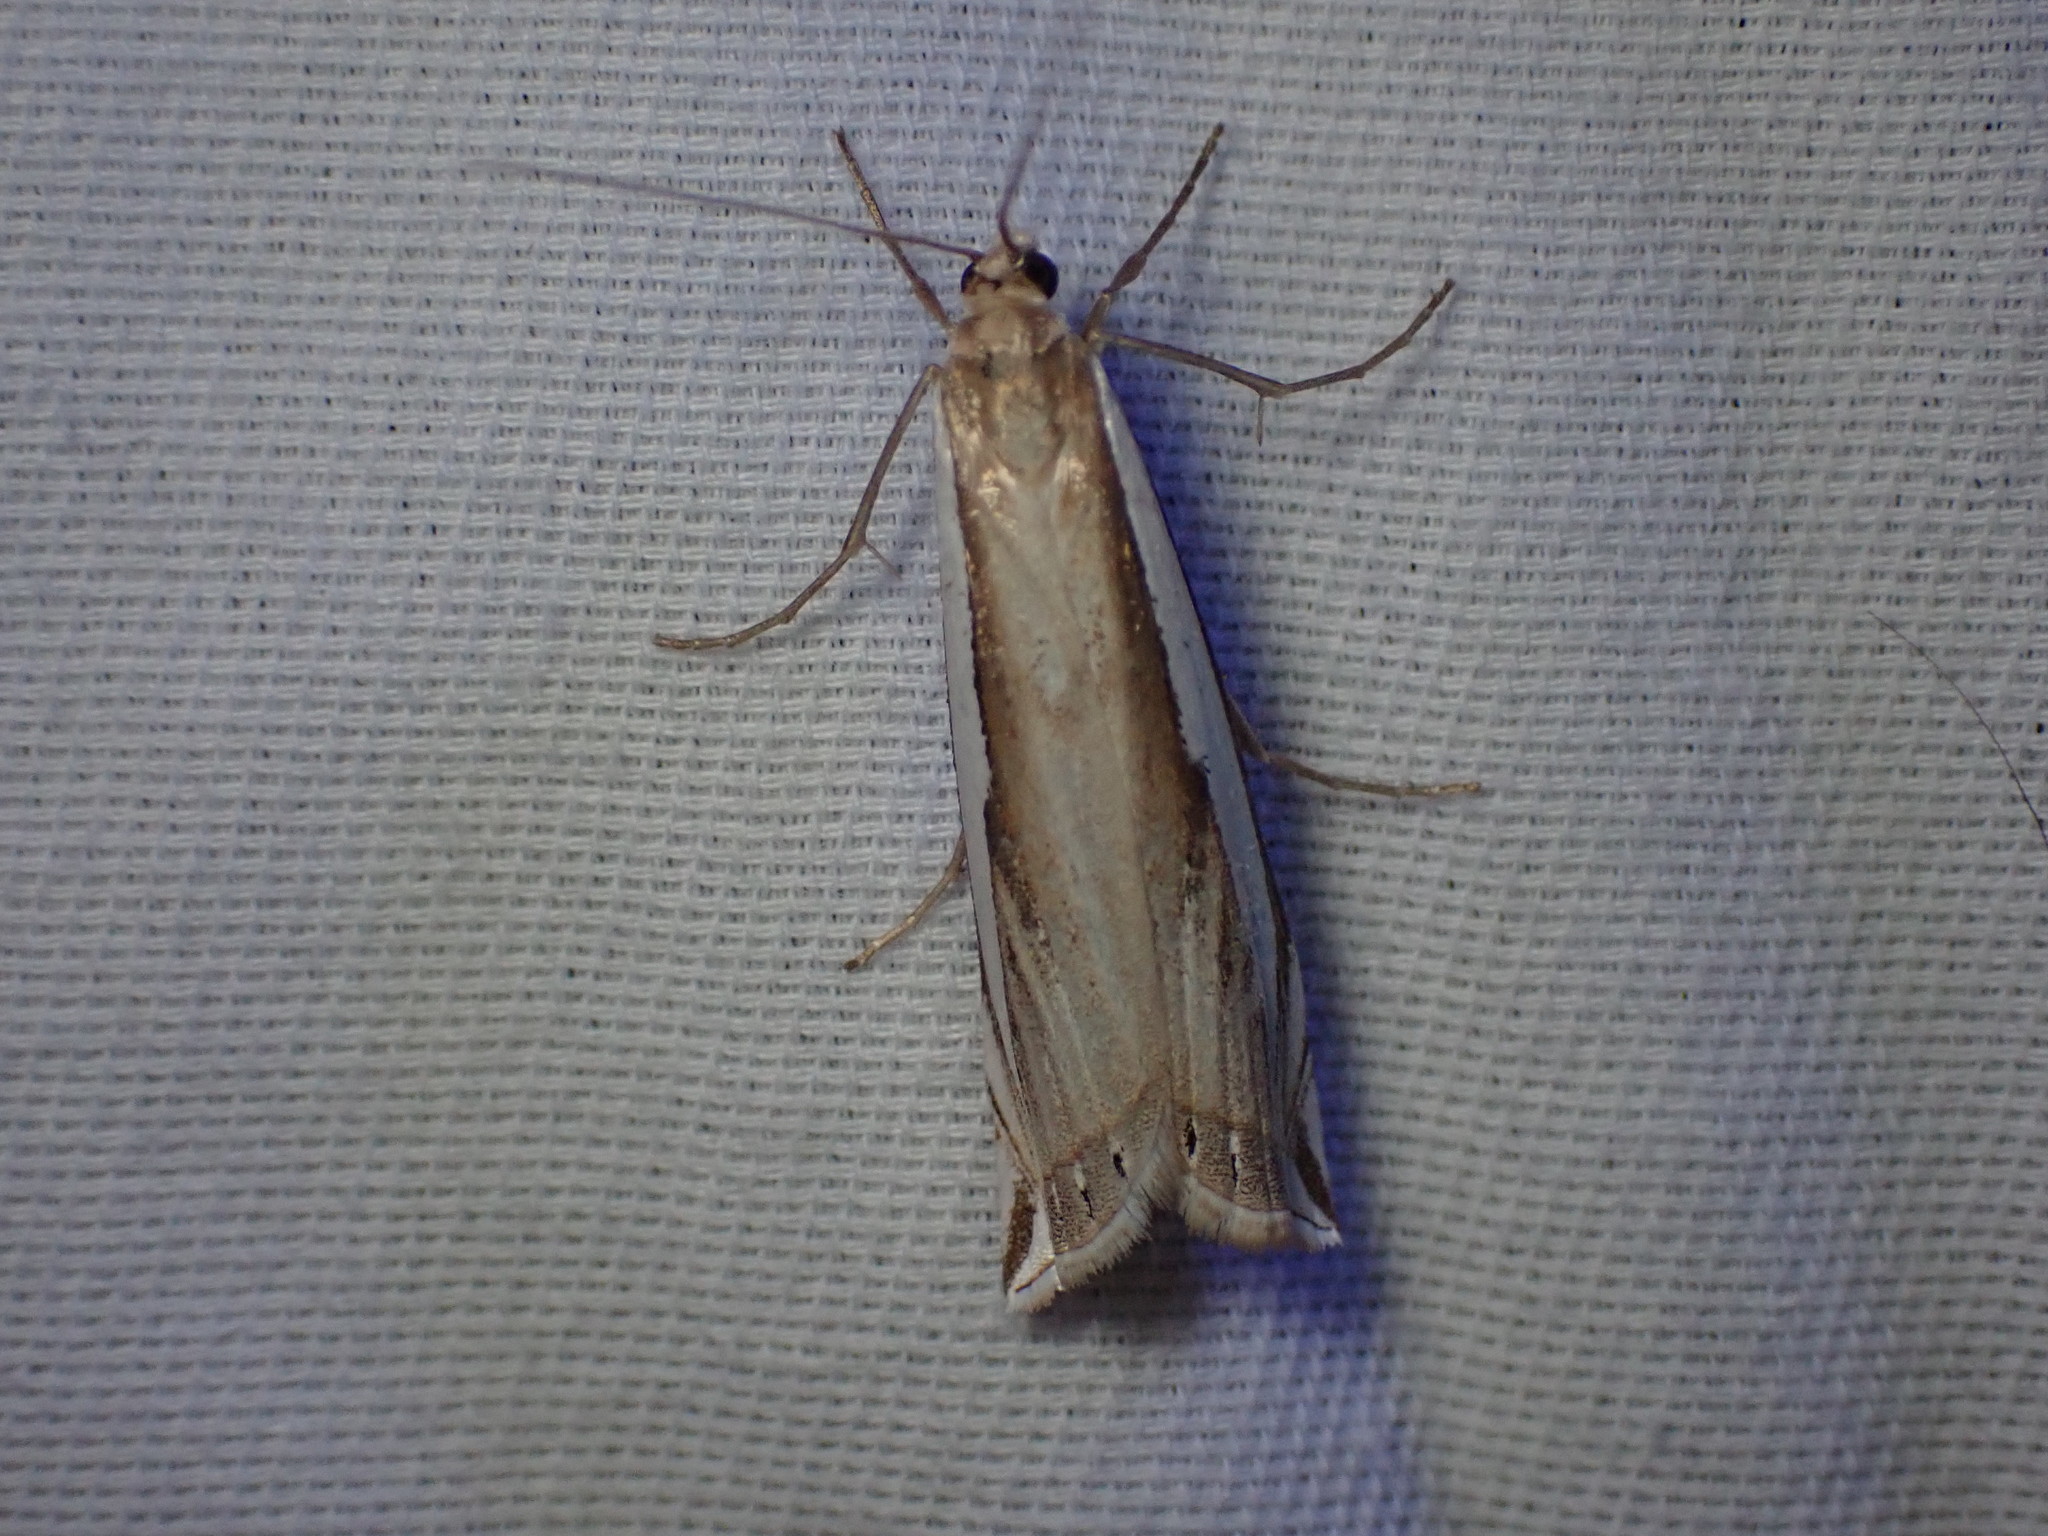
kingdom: Animalia
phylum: Arthropoda
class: Insecta
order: Lepidoptera
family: Crambidae
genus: Crambus
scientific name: Crambus cypridalis
